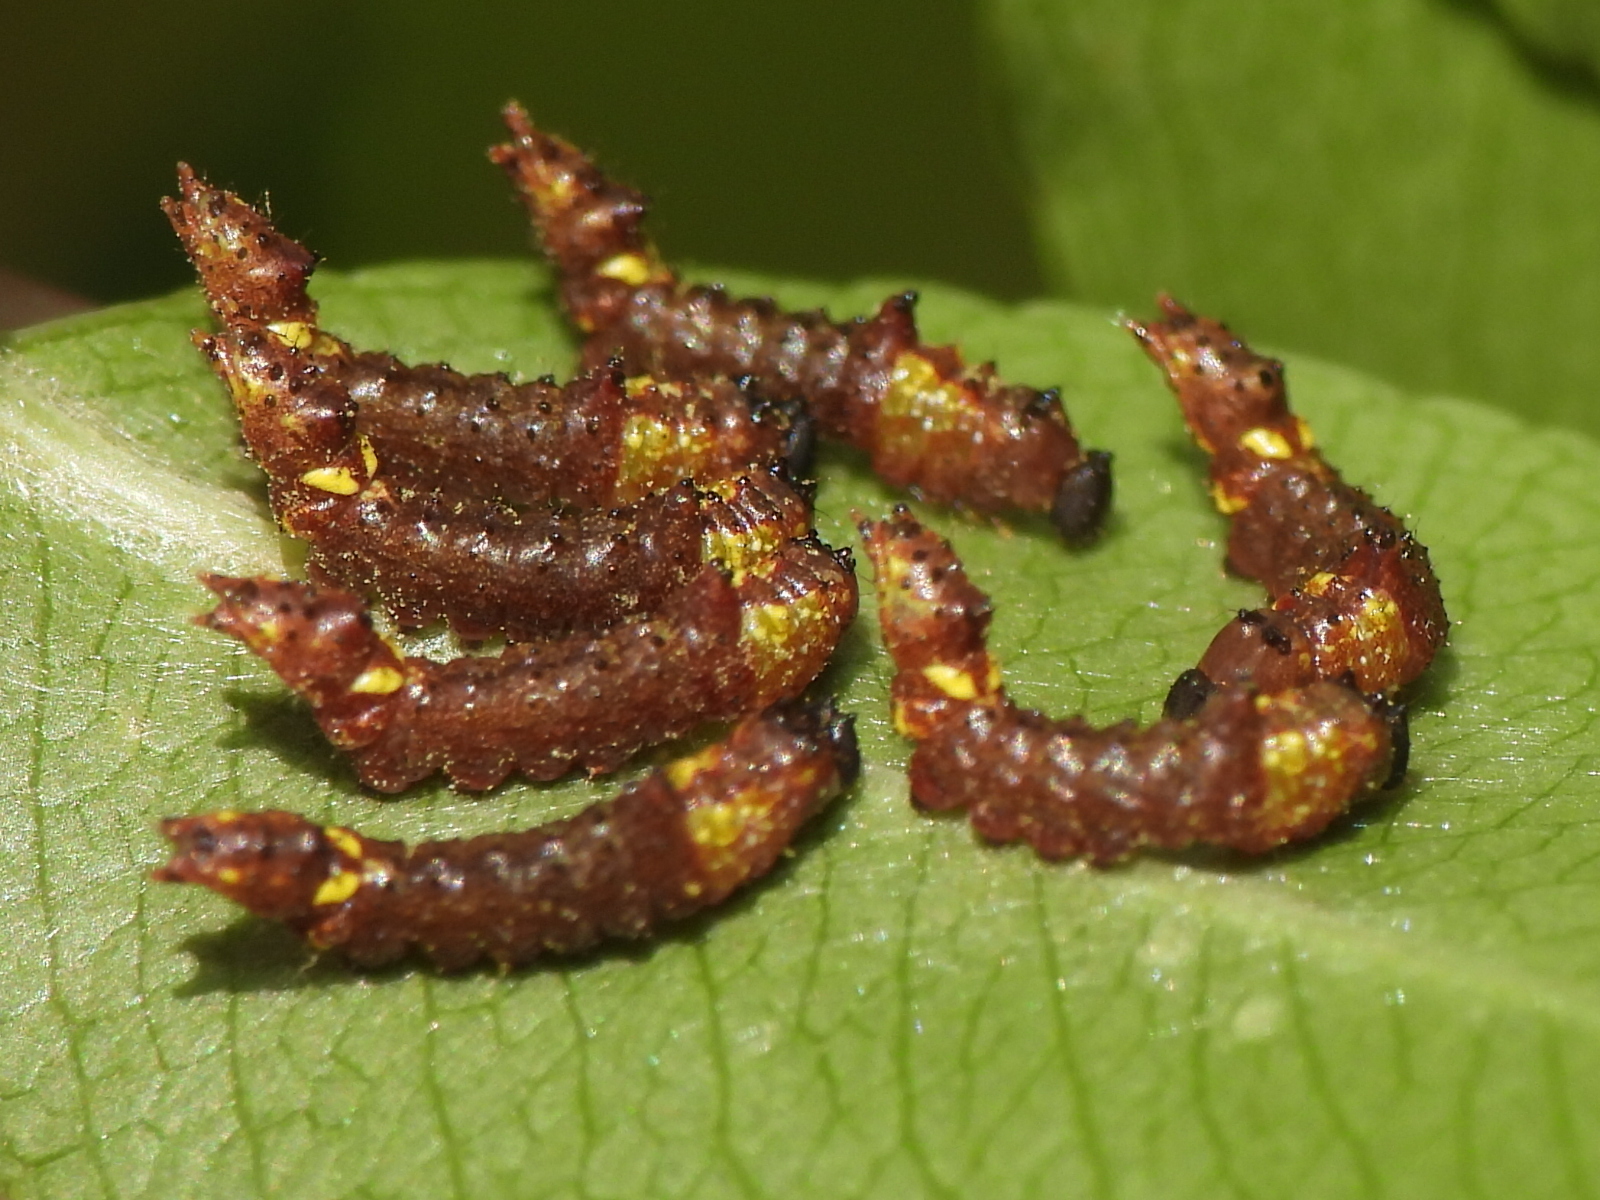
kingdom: Animalia
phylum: Arthropoda
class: Insecta
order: Lepidoptera
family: Notodontidae
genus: Schizura
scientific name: Schizura
